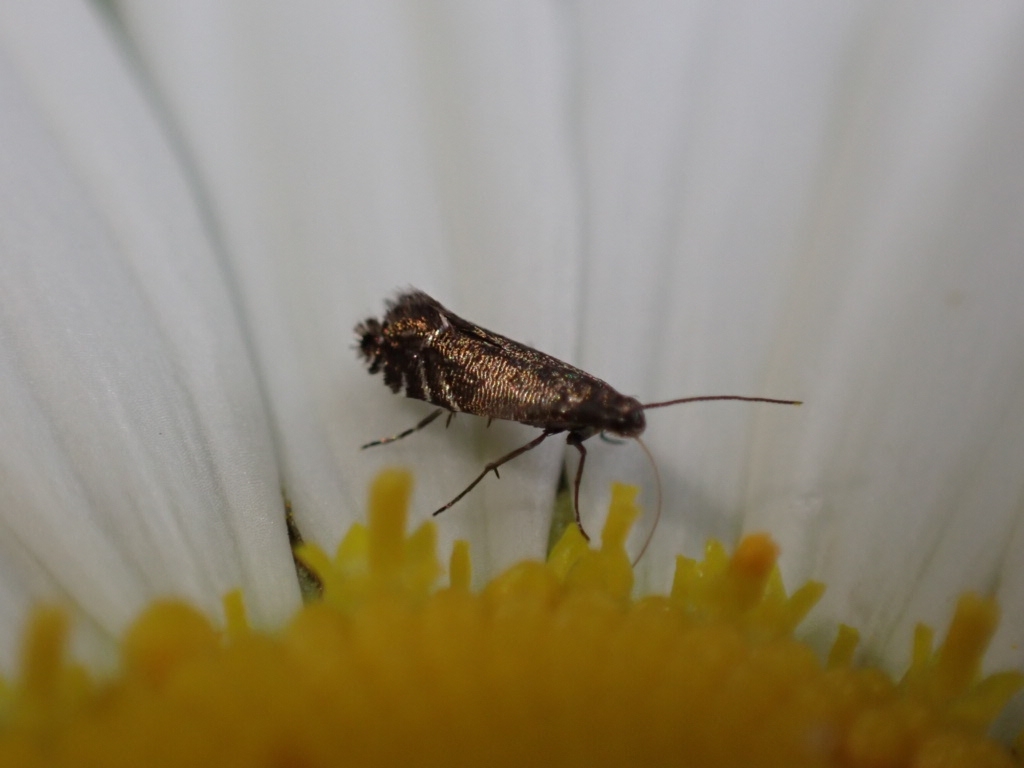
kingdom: Animalia
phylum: Arthropoda
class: Insecta
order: Lepidoptera
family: Glyphipterigidae
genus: Glyphipterix
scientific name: Glyphipterix simpliciella
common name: Cocksfoot moth
